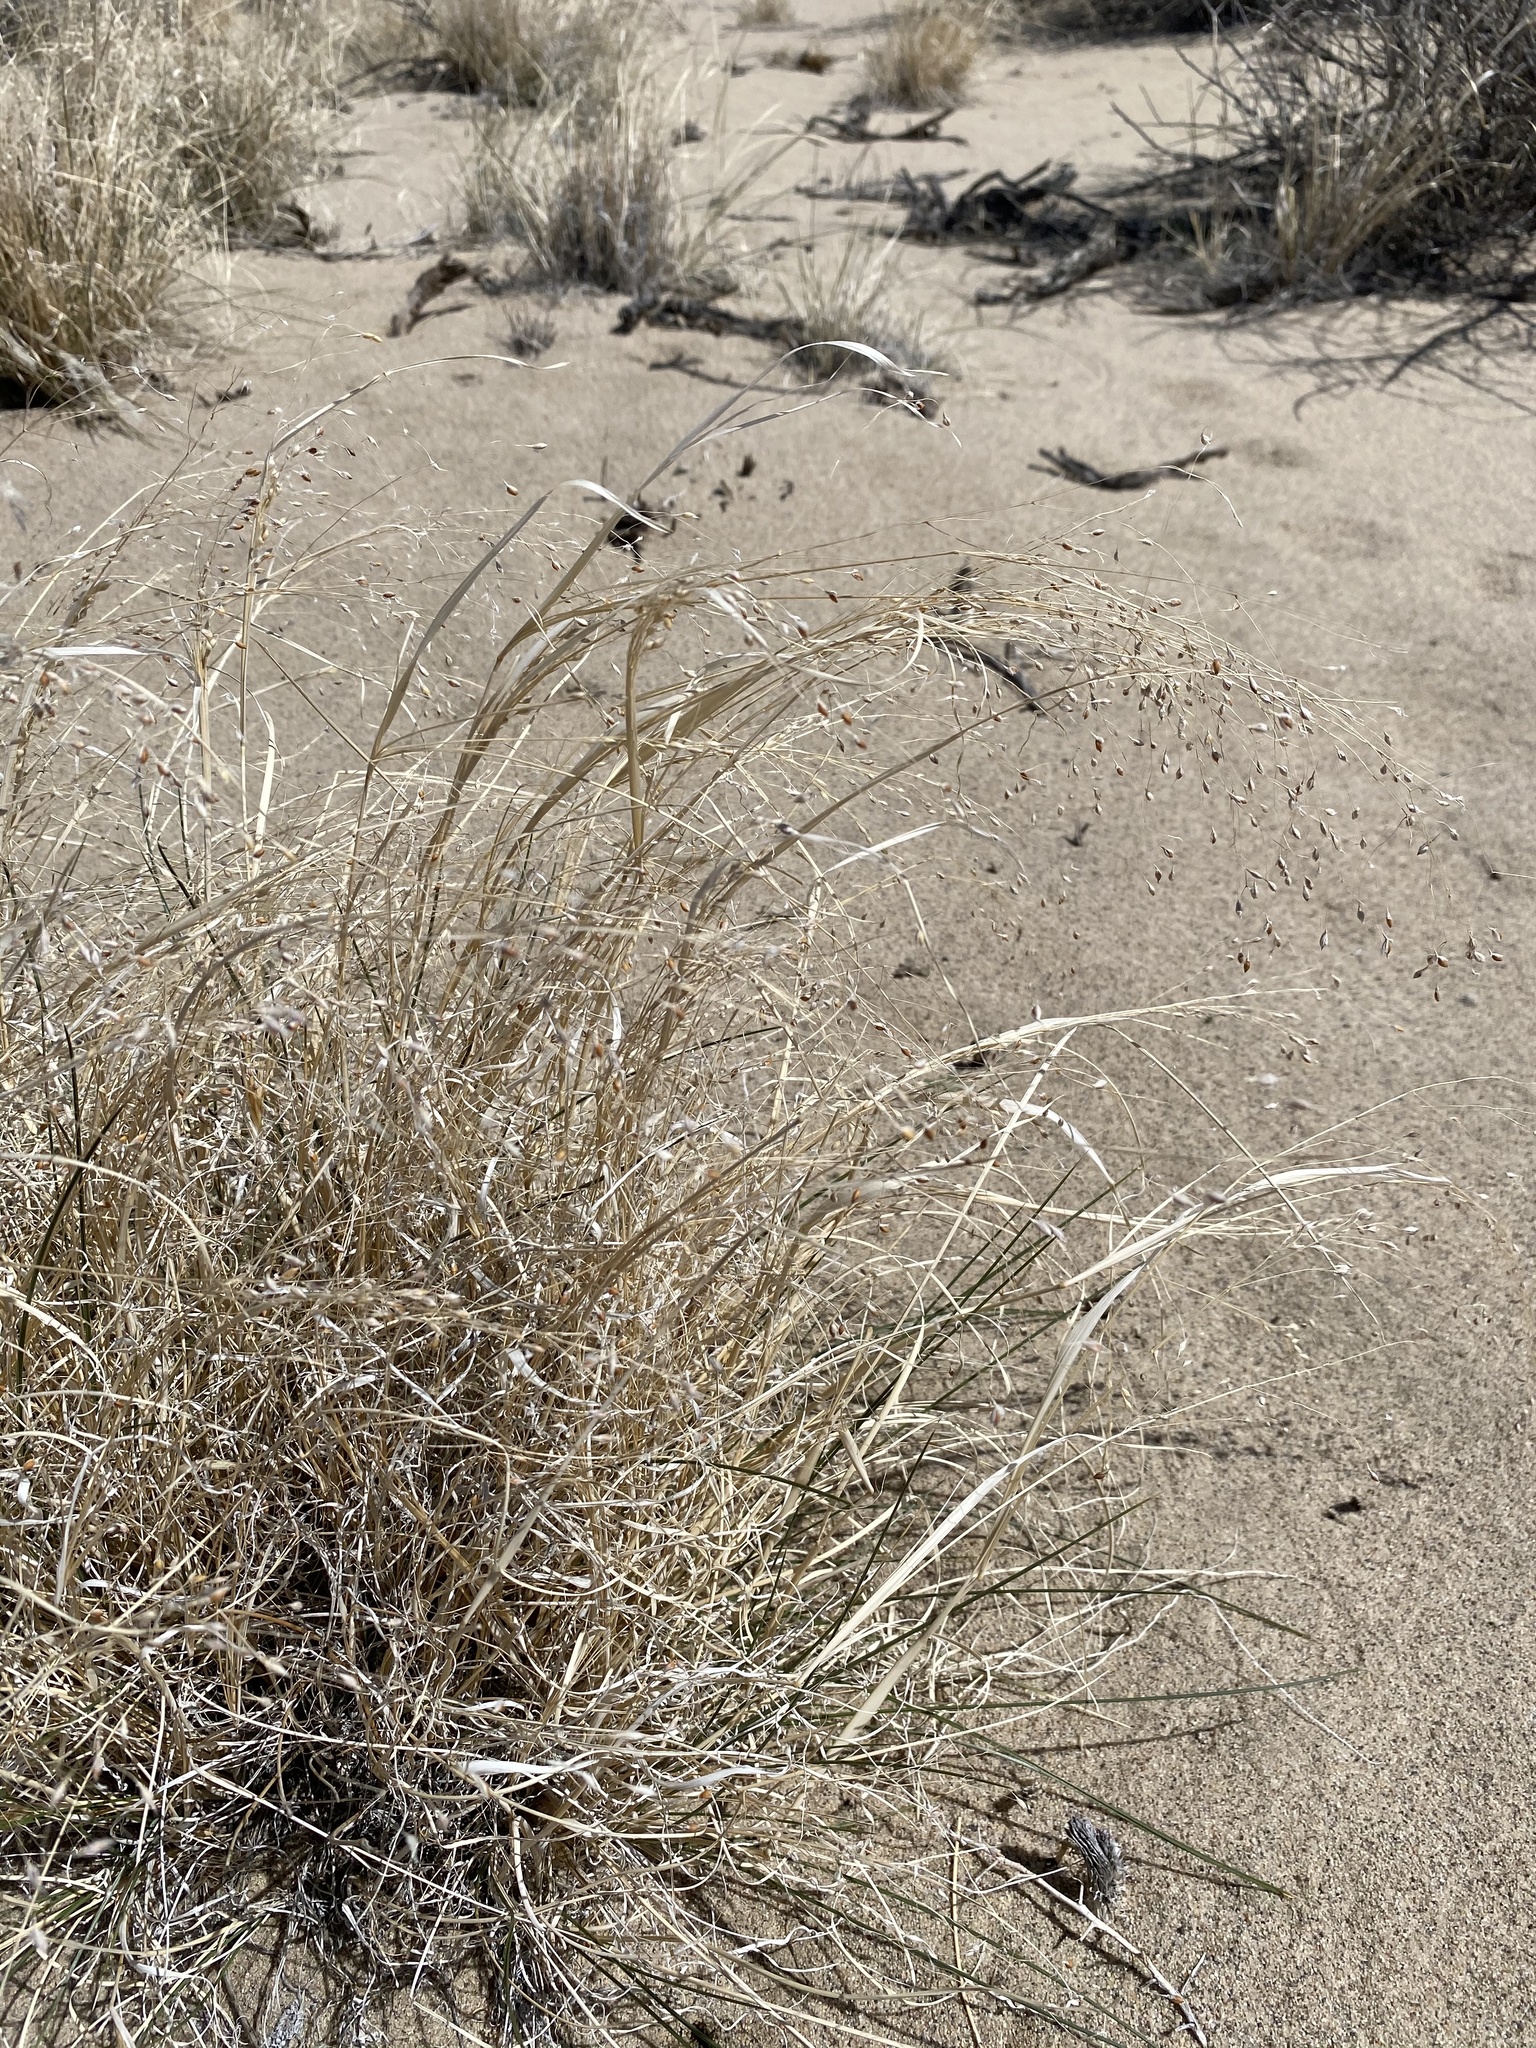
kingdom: Plantae
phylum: Tracheophyta
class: Liliopsida
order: Poales
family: Poaceae
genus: Eriocoma
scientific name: Eriocoma hymenoides
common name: Indian mountain ricegrass
